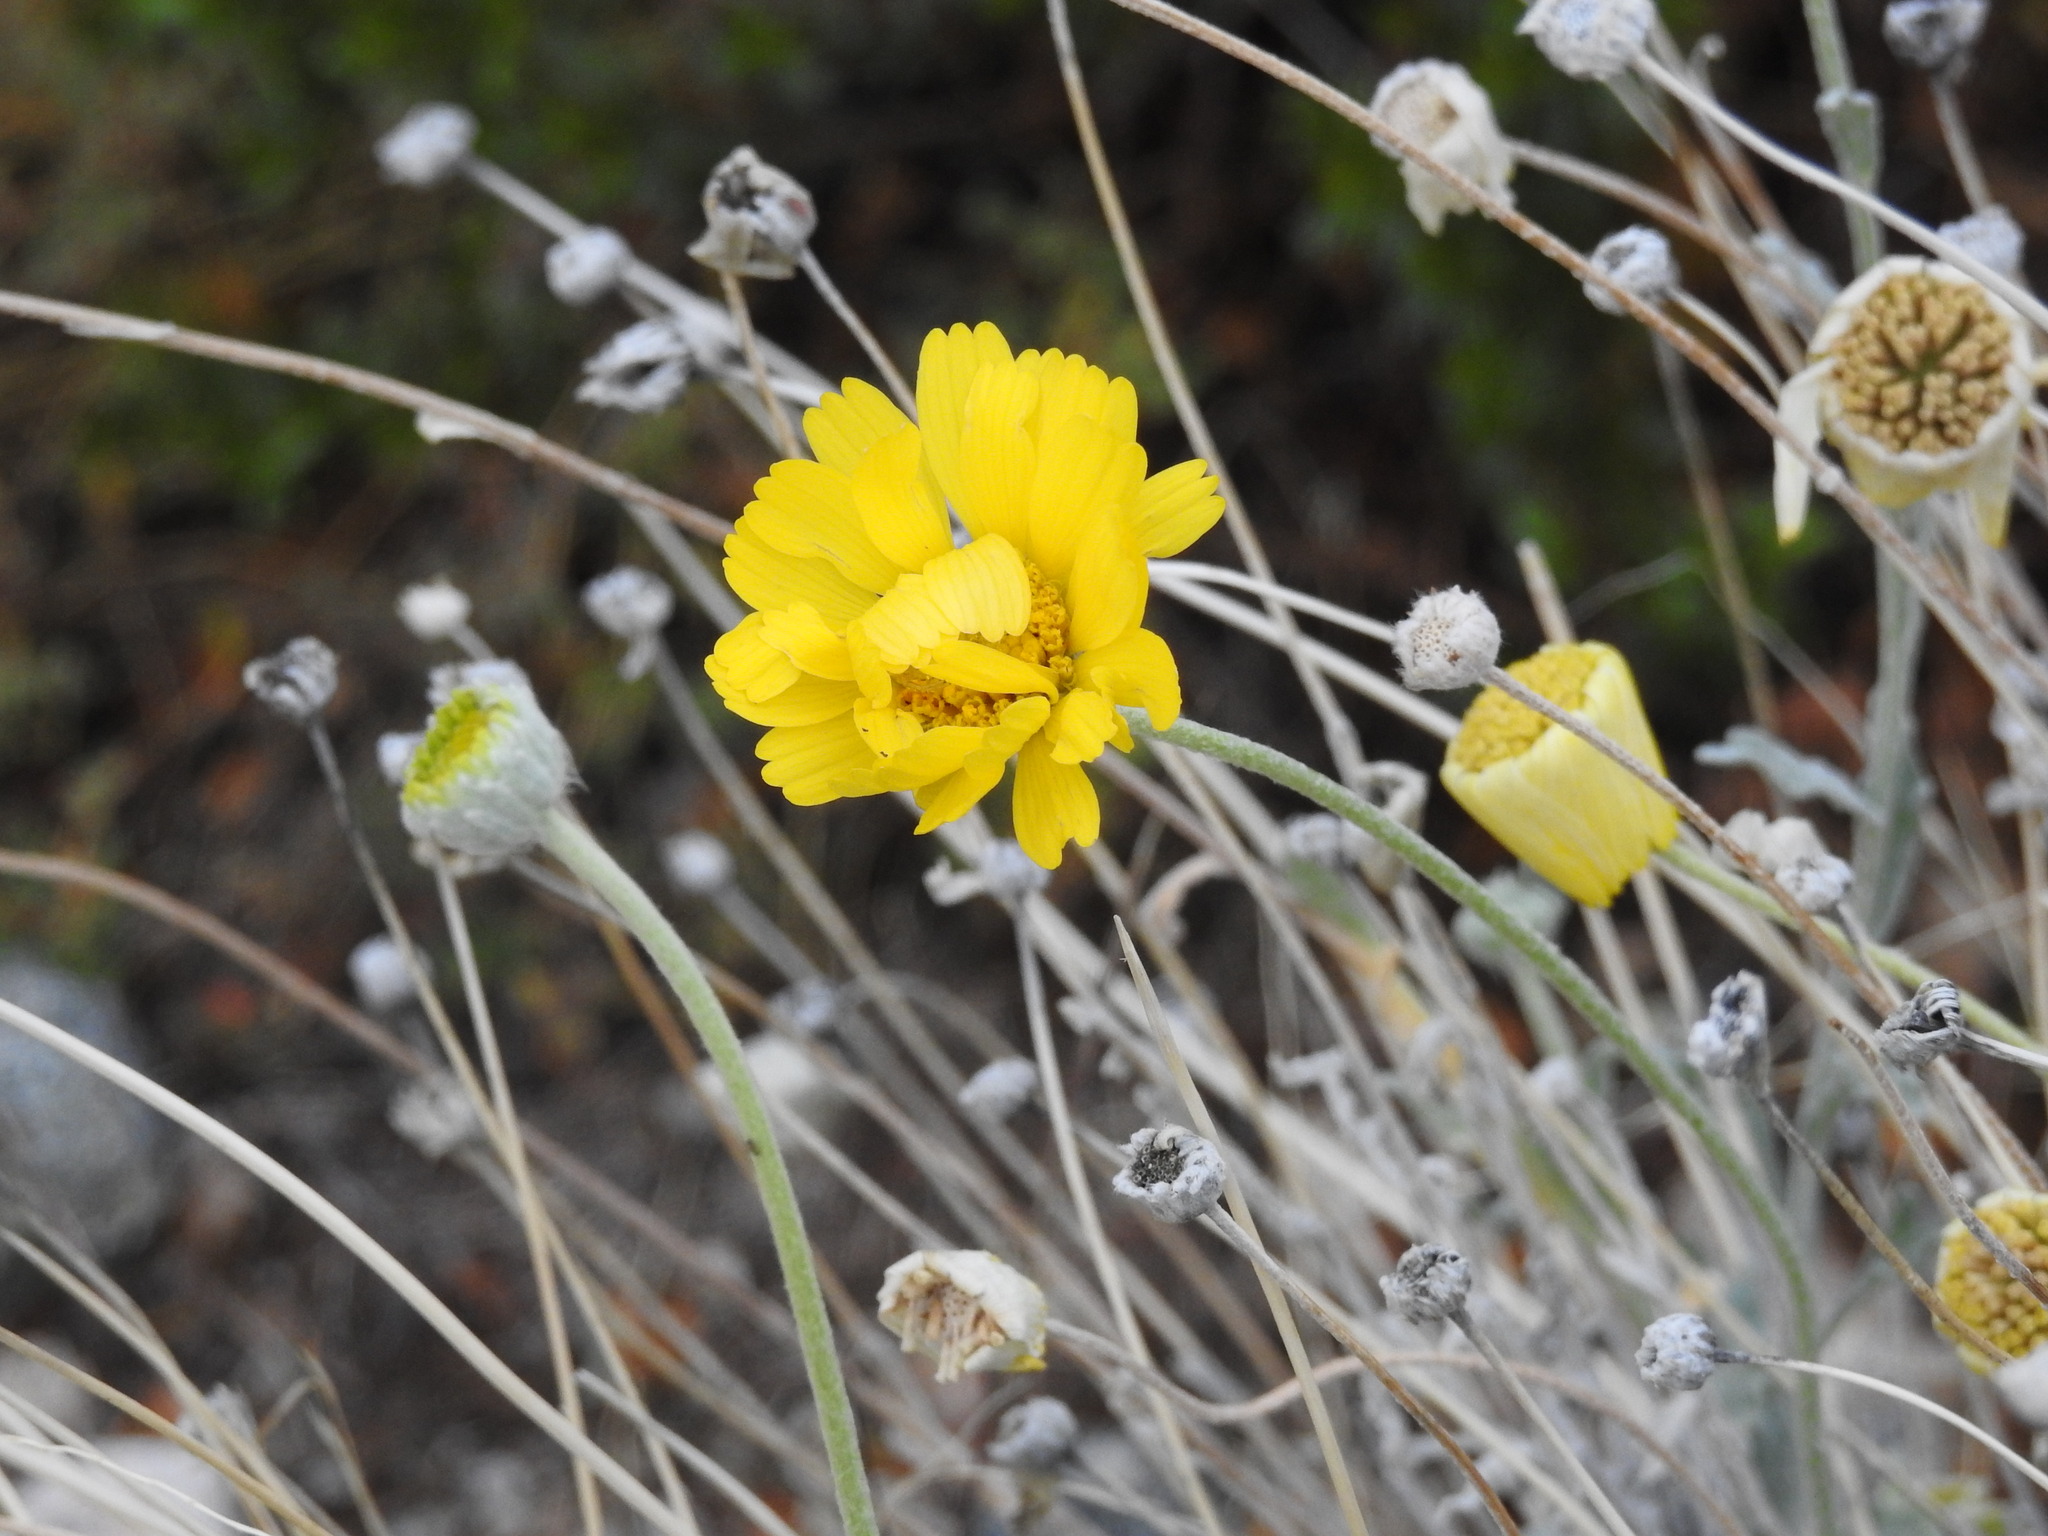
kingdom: Plantae
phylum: Tracheophyta
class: Magnoliopsida
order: Asterales
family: Asteraceae
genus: Baileya
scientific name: Baileya multiradiata
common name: Desert-marigold
